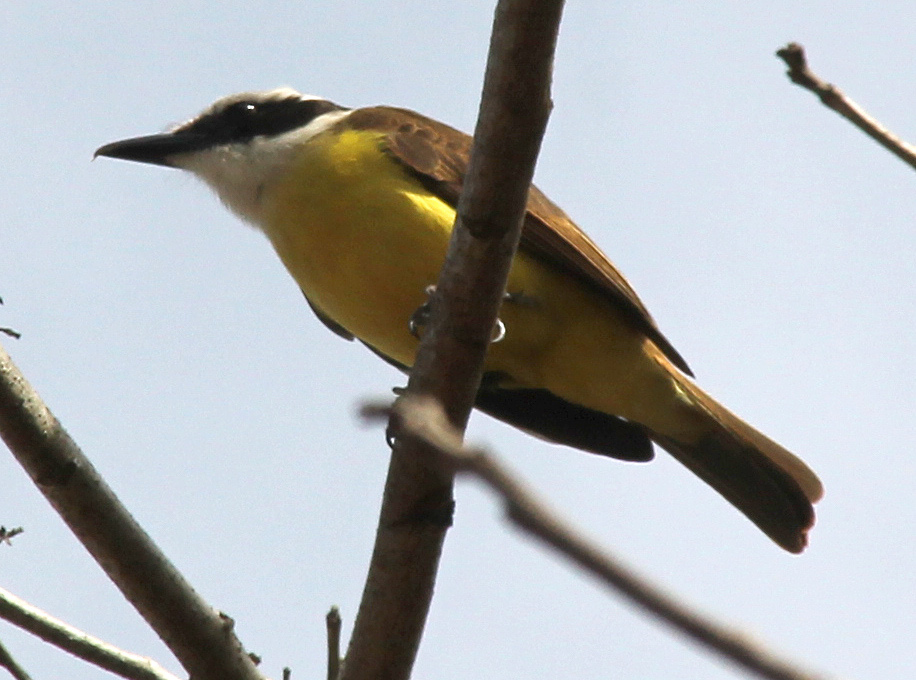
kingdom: Animalia
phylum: Chordata
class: Aves
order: Passeriformes
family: Tyrannidae
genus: Pitangus
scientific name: Pitangus sulphuratus
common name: Great kiskadee
